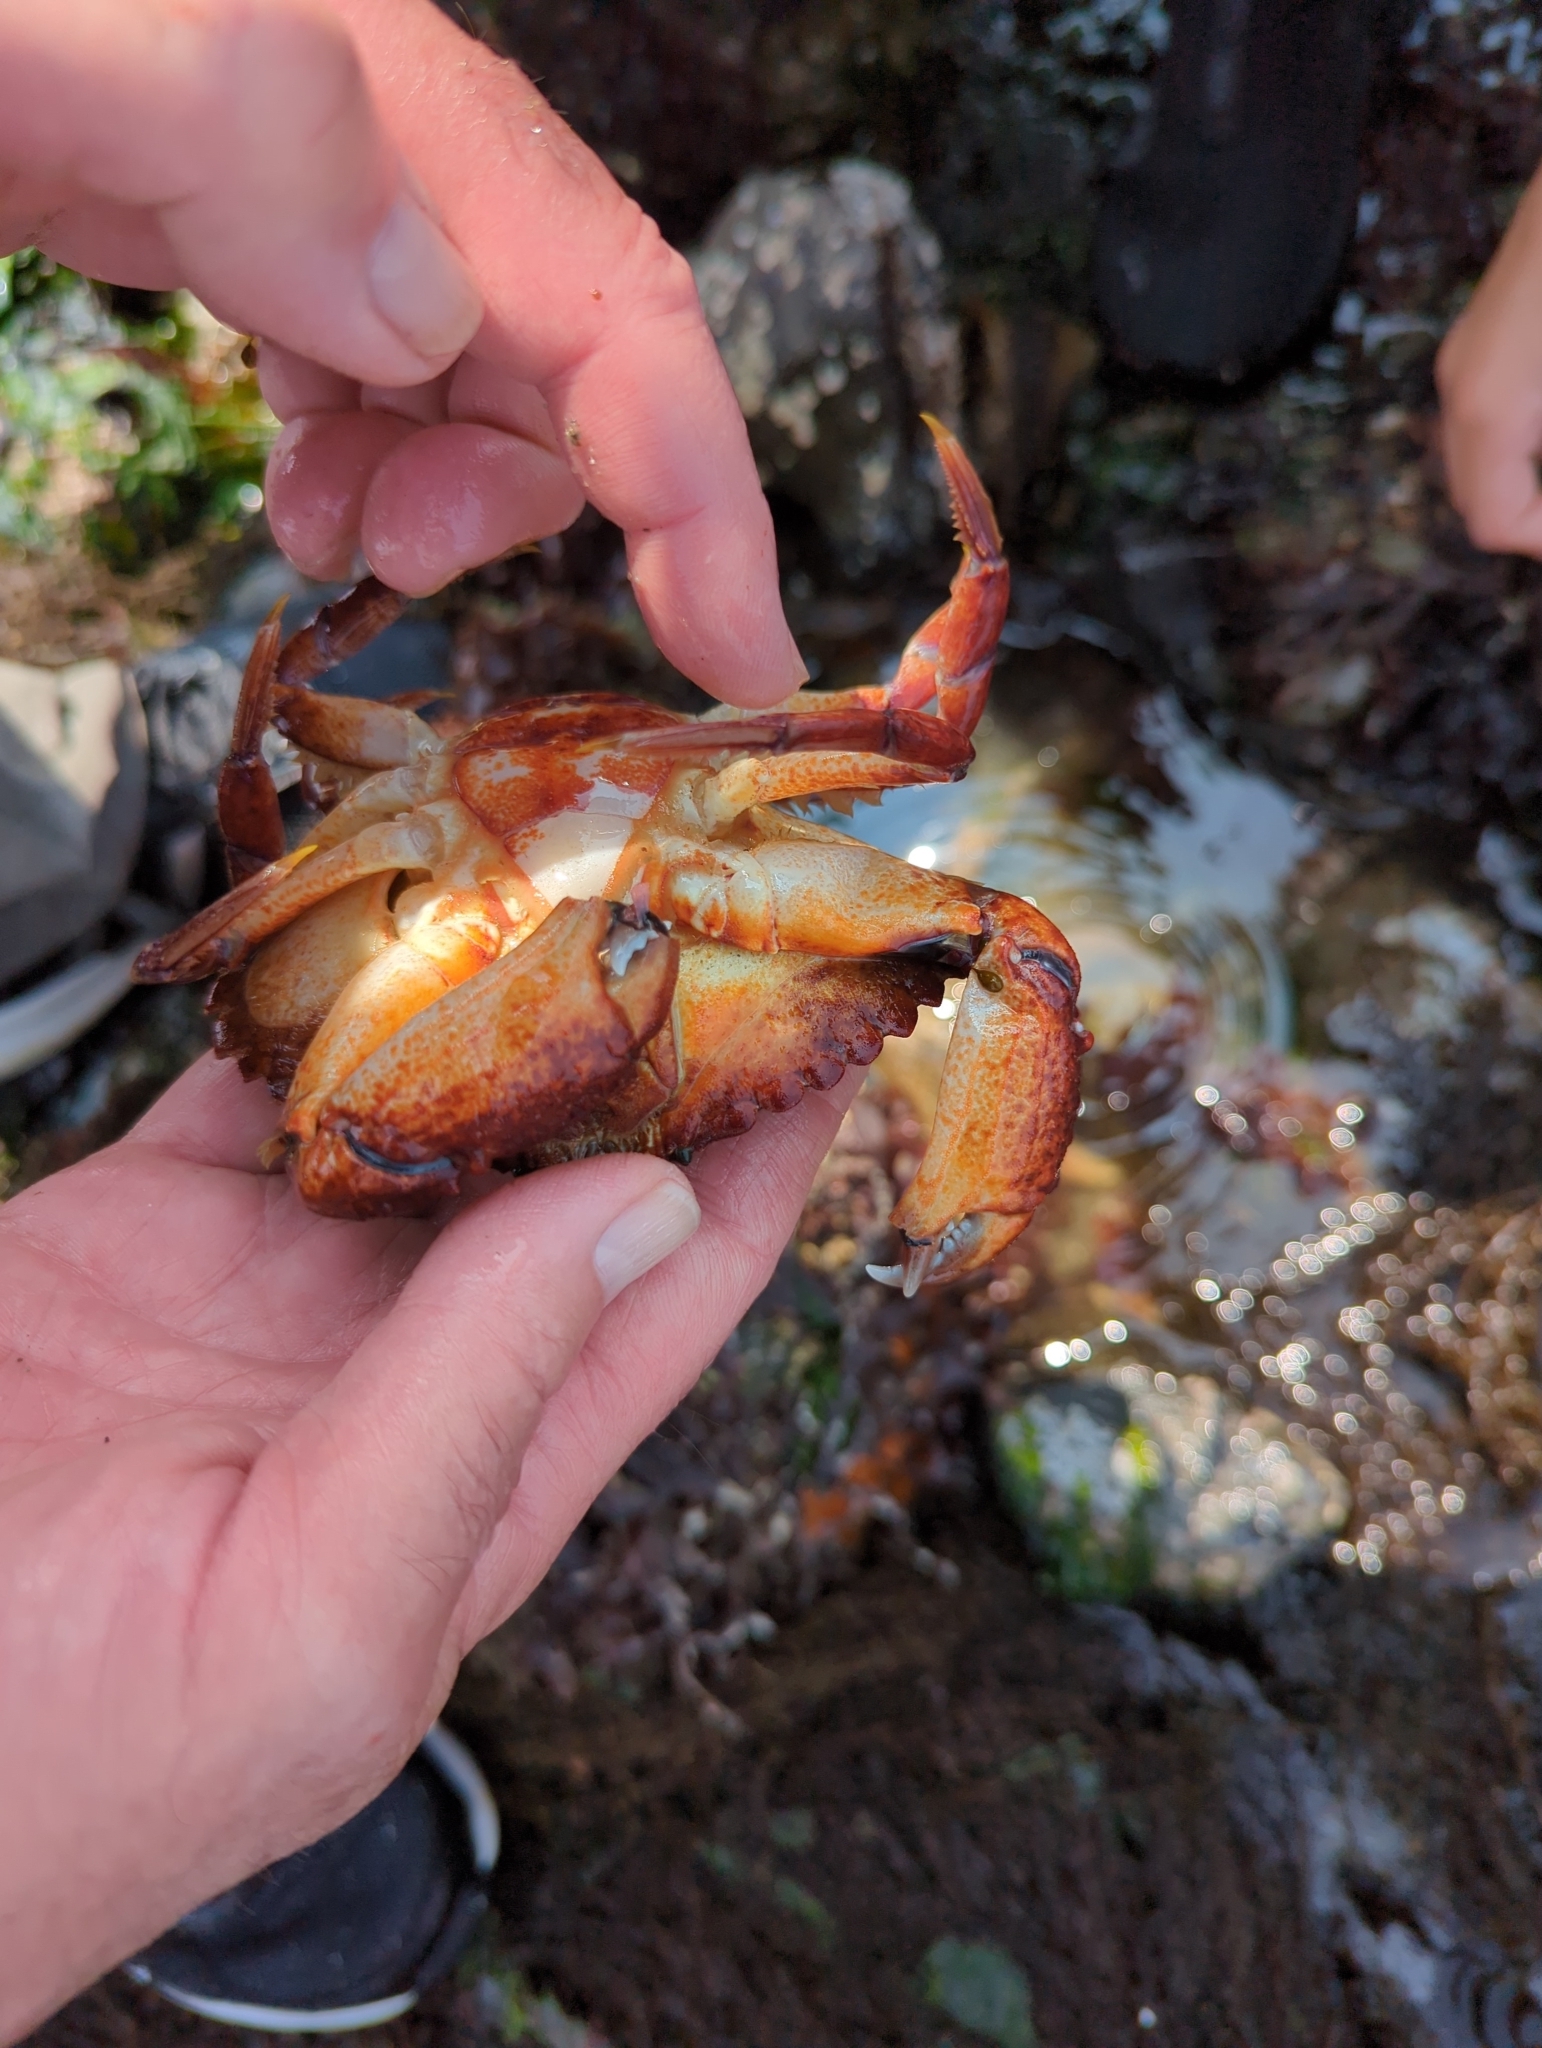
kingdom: Animalia
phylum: Arthropoda
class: Malacostraca
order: Decapoda
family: Cancridae
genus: Cancer
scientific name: Cancer productus
